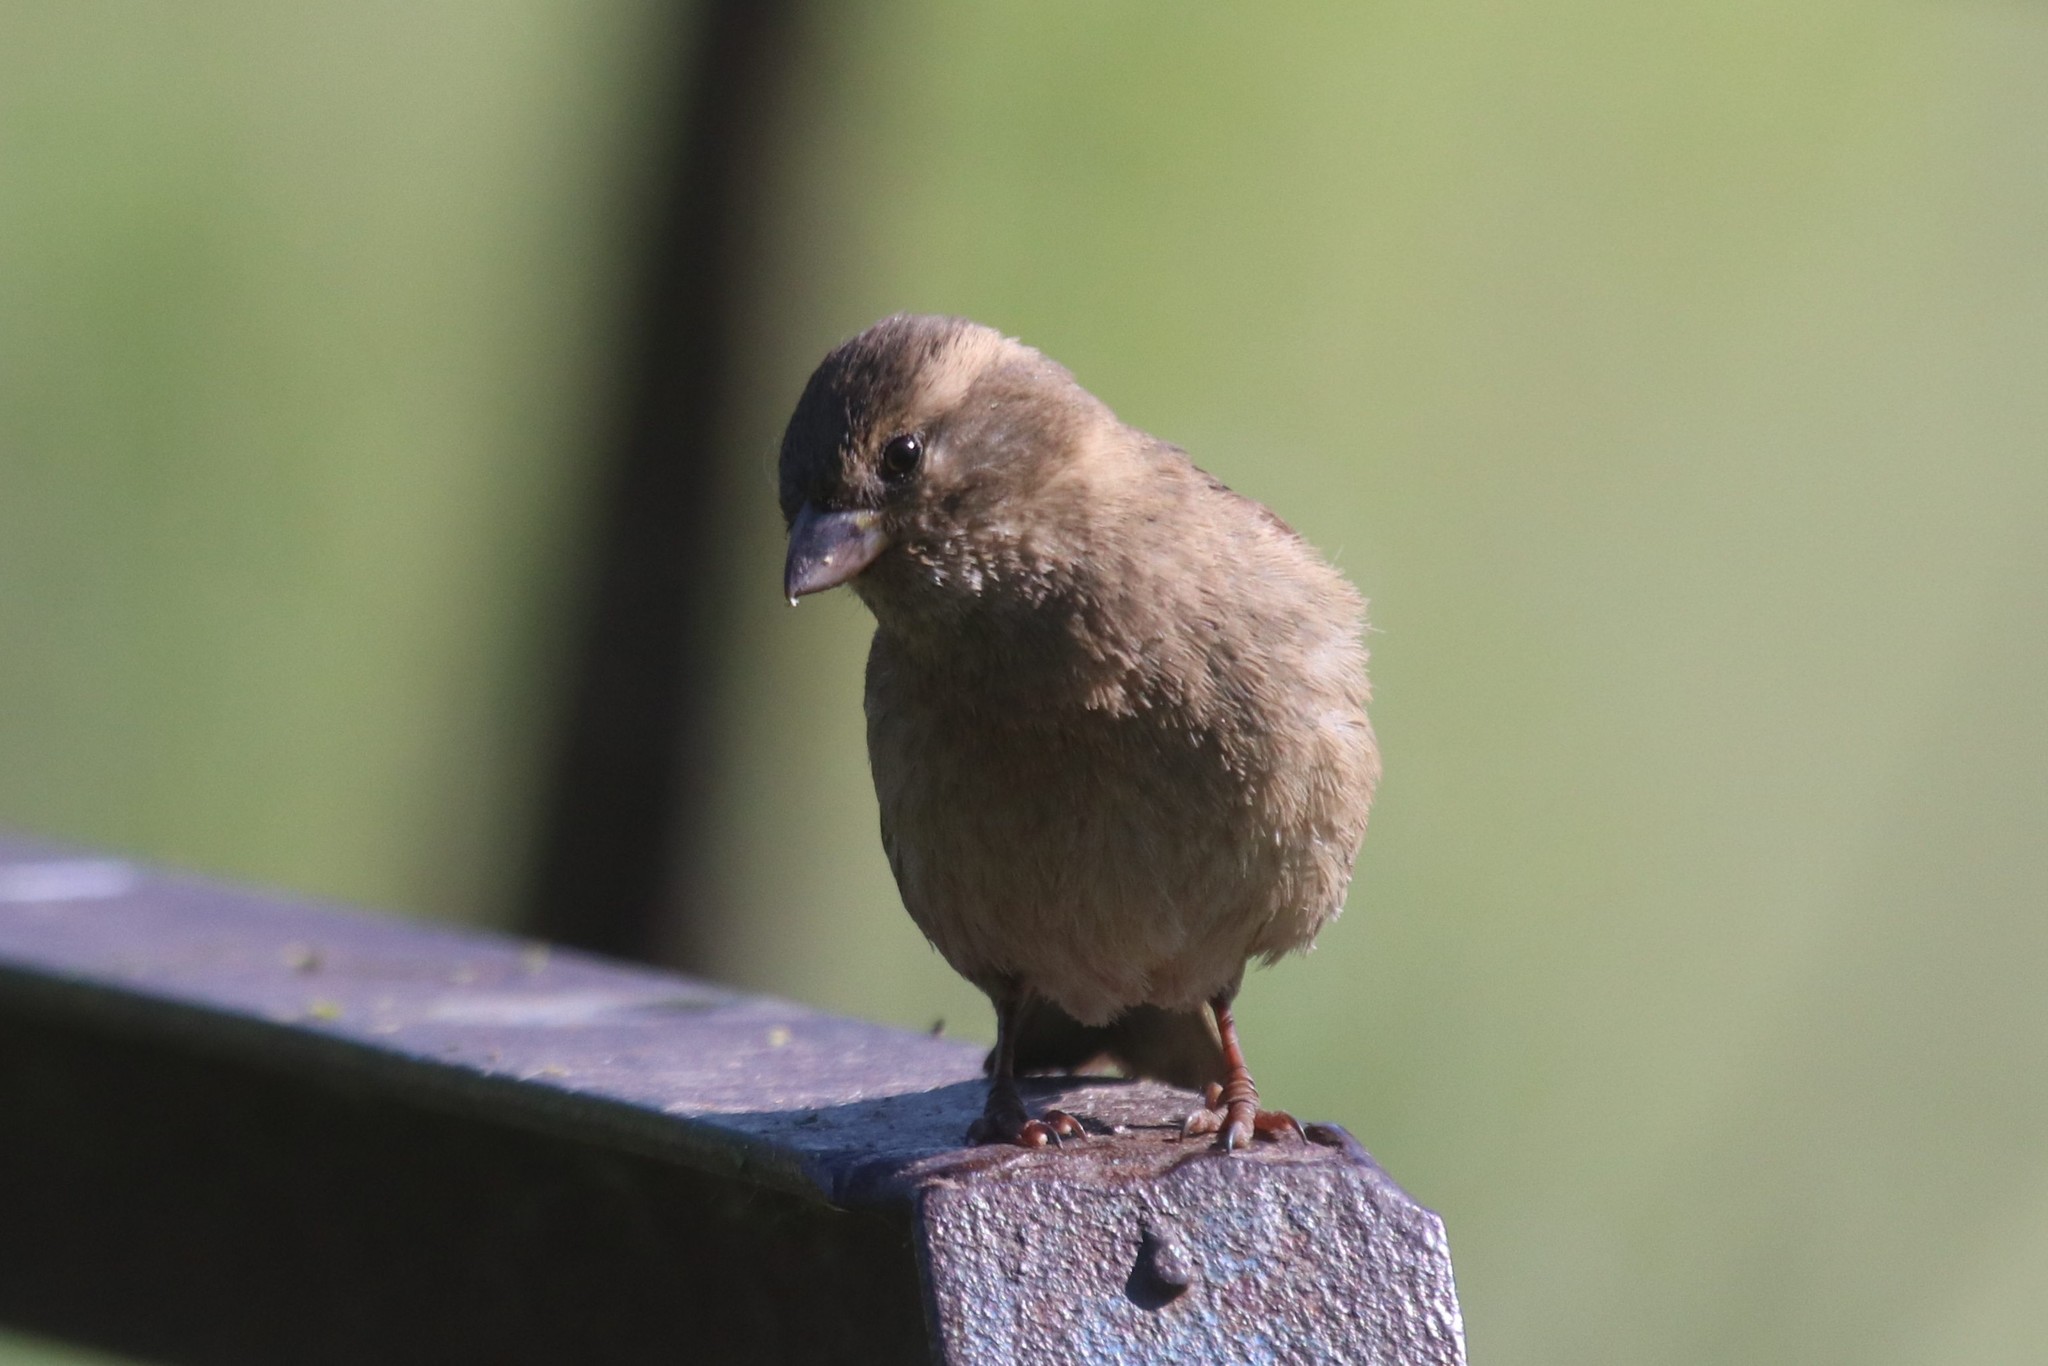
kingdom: Animalia
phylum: Chordata
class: Aves
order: Passeriformes
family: Passeridae
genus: Passer
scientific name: Passer domesticus
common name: House sparrow
